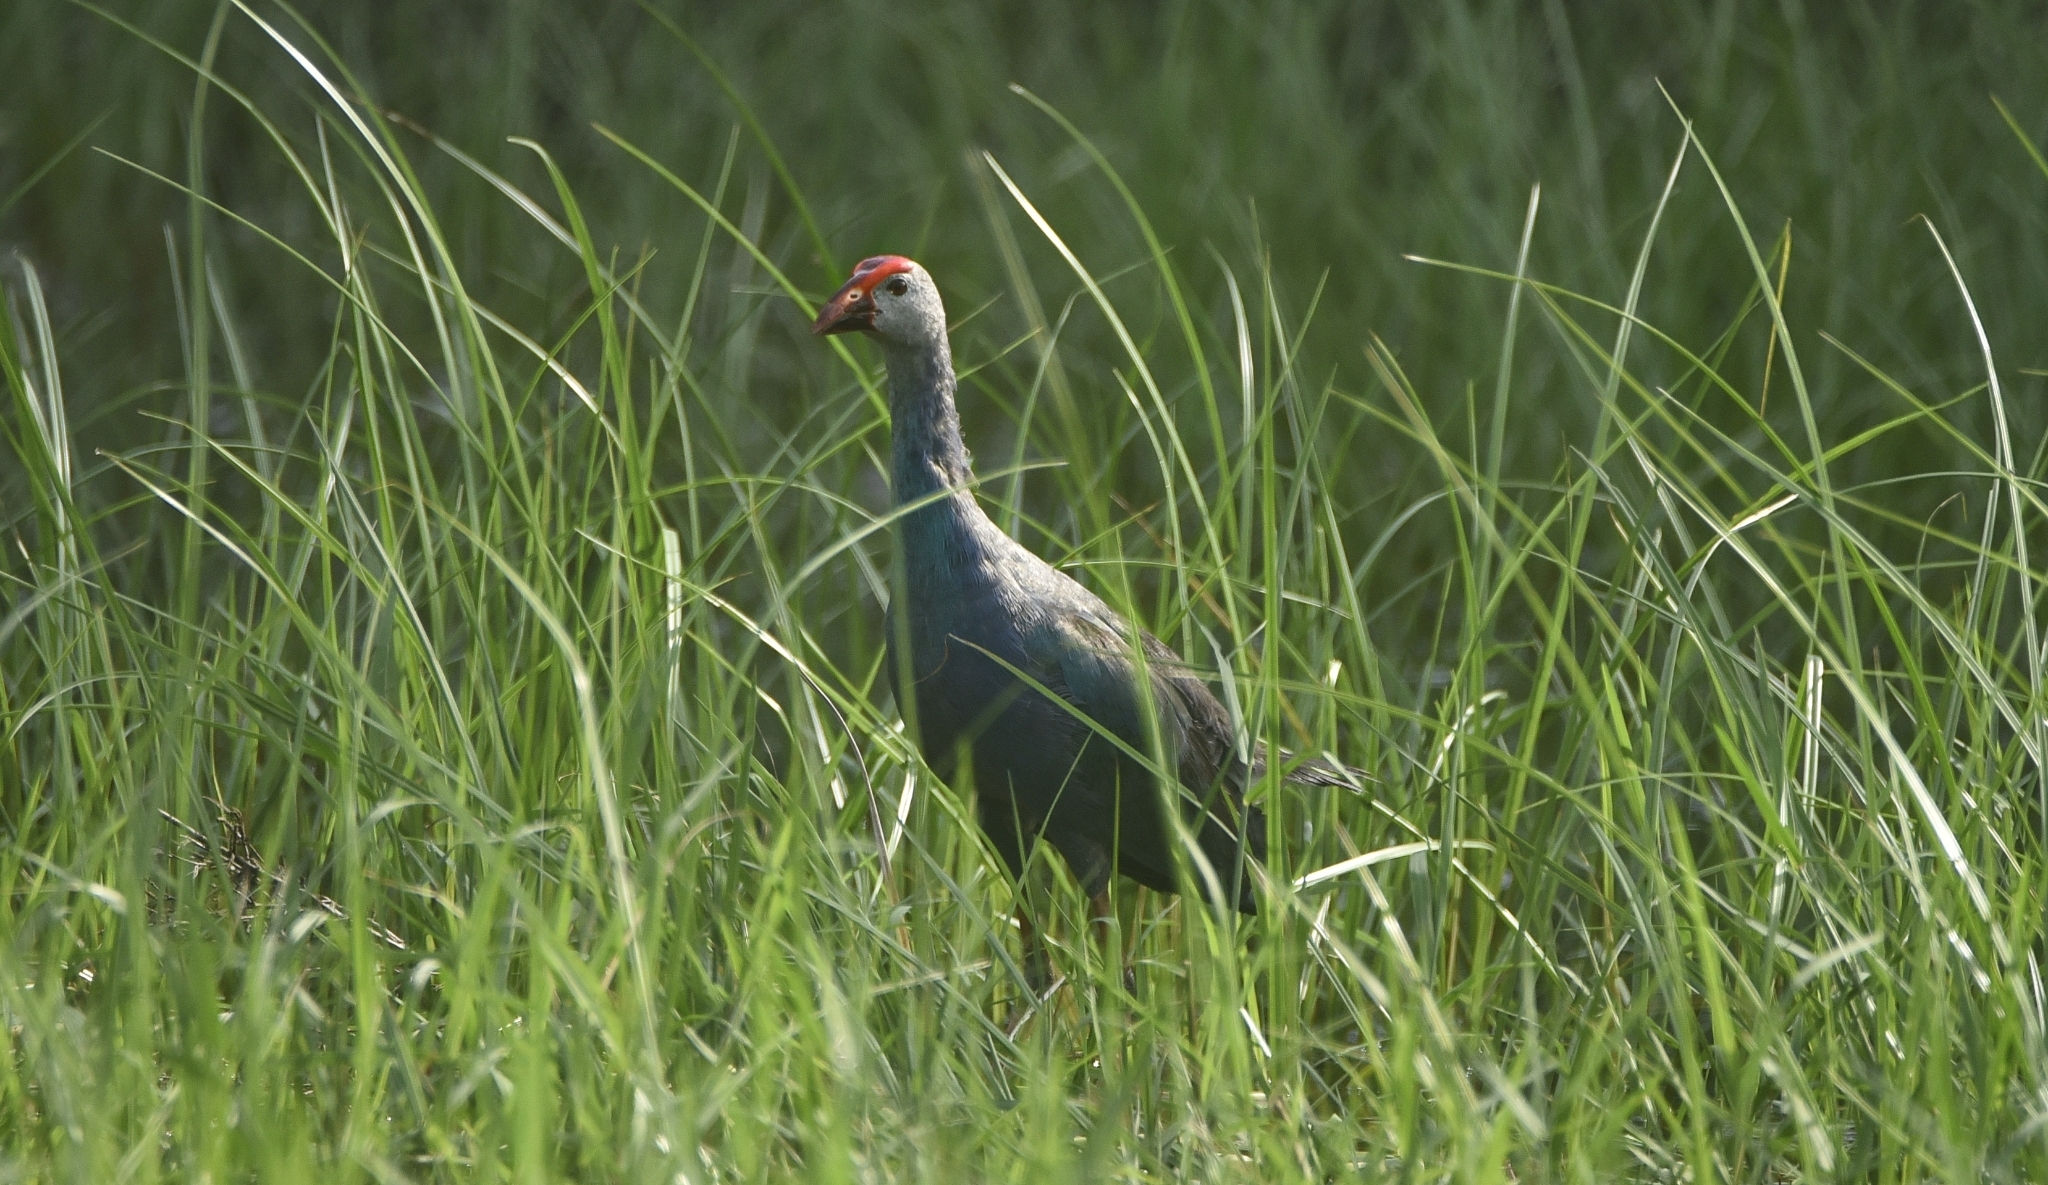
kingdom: Animalia
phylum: Chordata
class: Aves
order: Gruiformes
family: Rallidae
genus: Porphyrio
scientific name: Porphyrio porphyrio
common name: Purple swamphen
